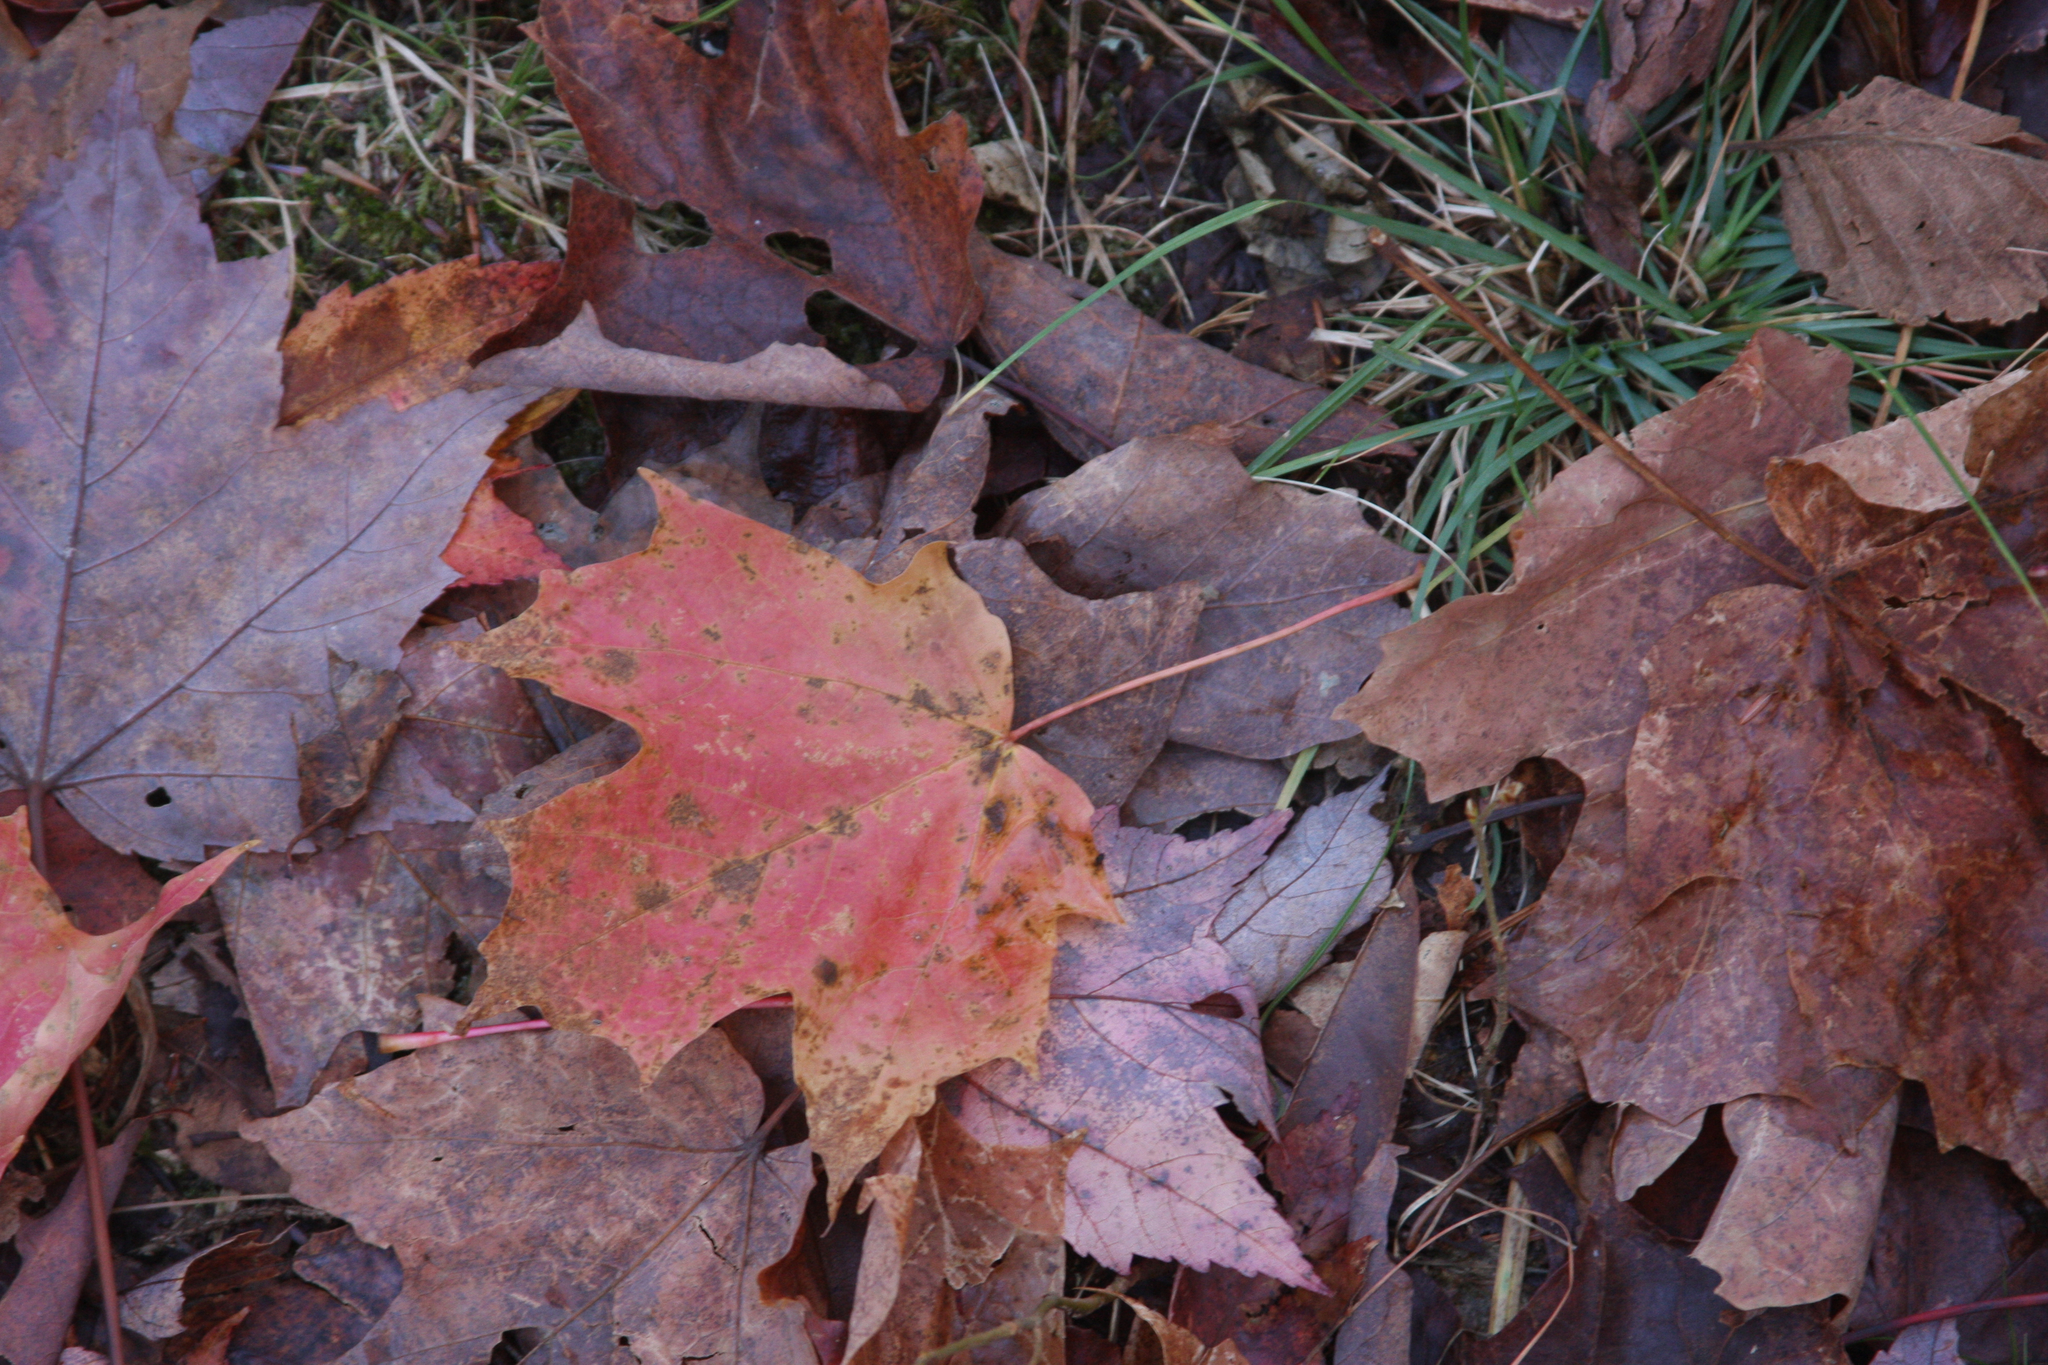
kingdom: Plantae
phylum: Tracheophyta
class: Magnoliopsida
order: Sapindales
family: Sapindaceae
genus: Acer
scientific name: Acer saccharum
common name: Sugar maple
